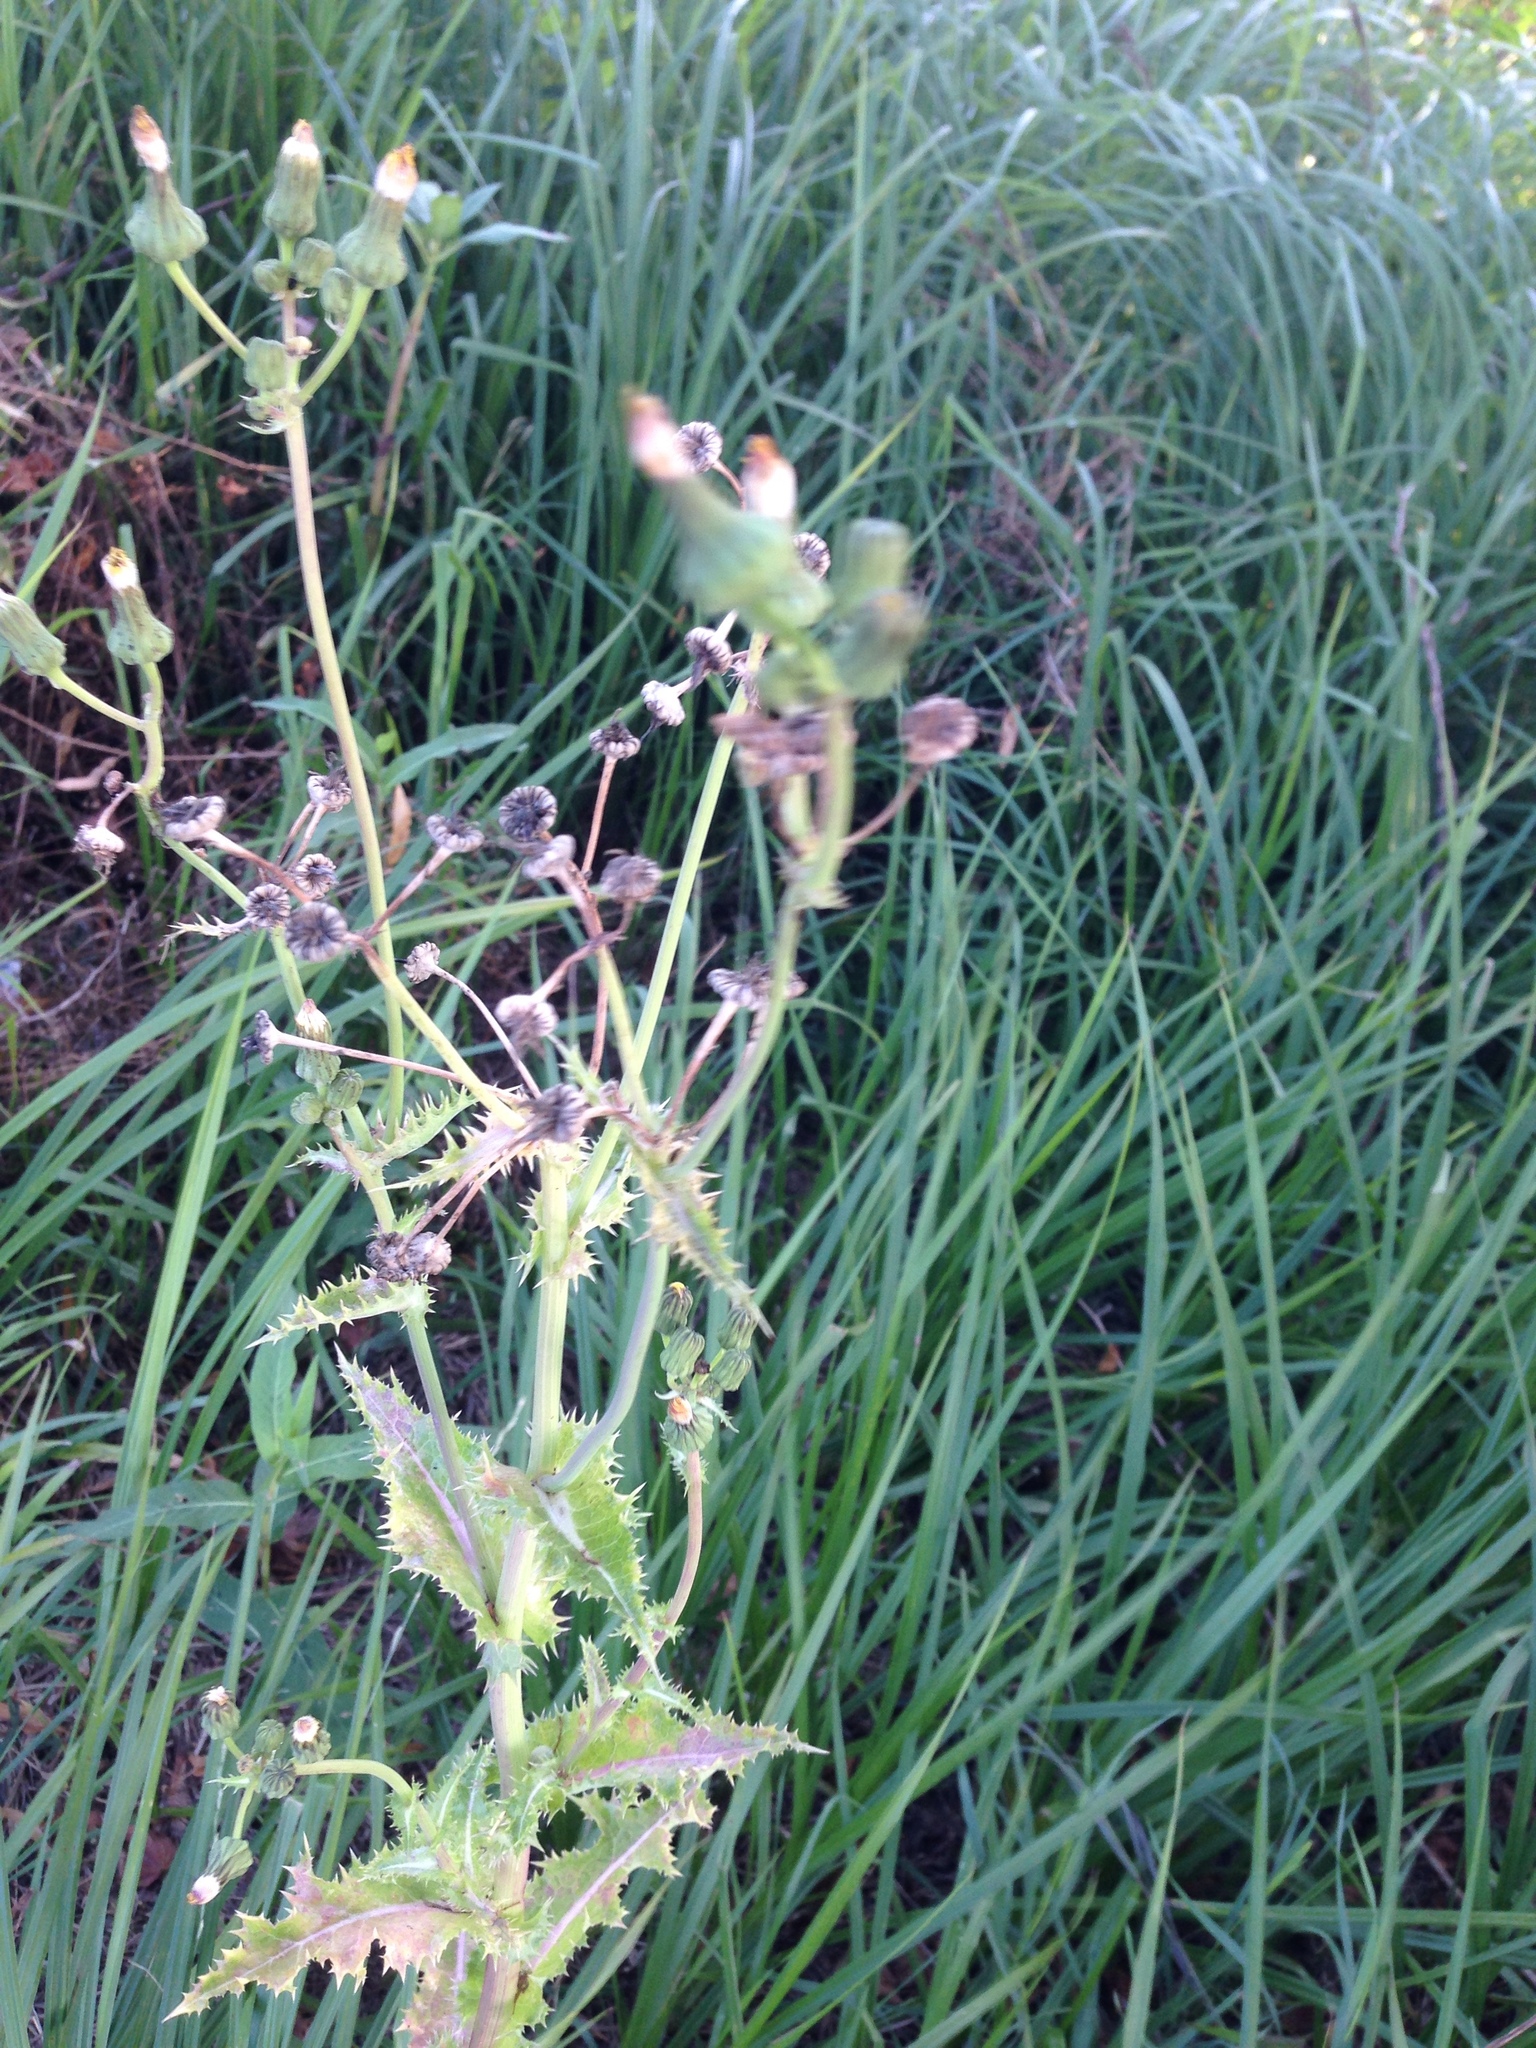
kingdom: Plantae
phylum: Tracheophyta
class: Magnoliopsida
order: Asterales
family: Asteraceae
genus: Sonchus
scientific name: Sonchus asper
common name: Prickly sow-thistle
